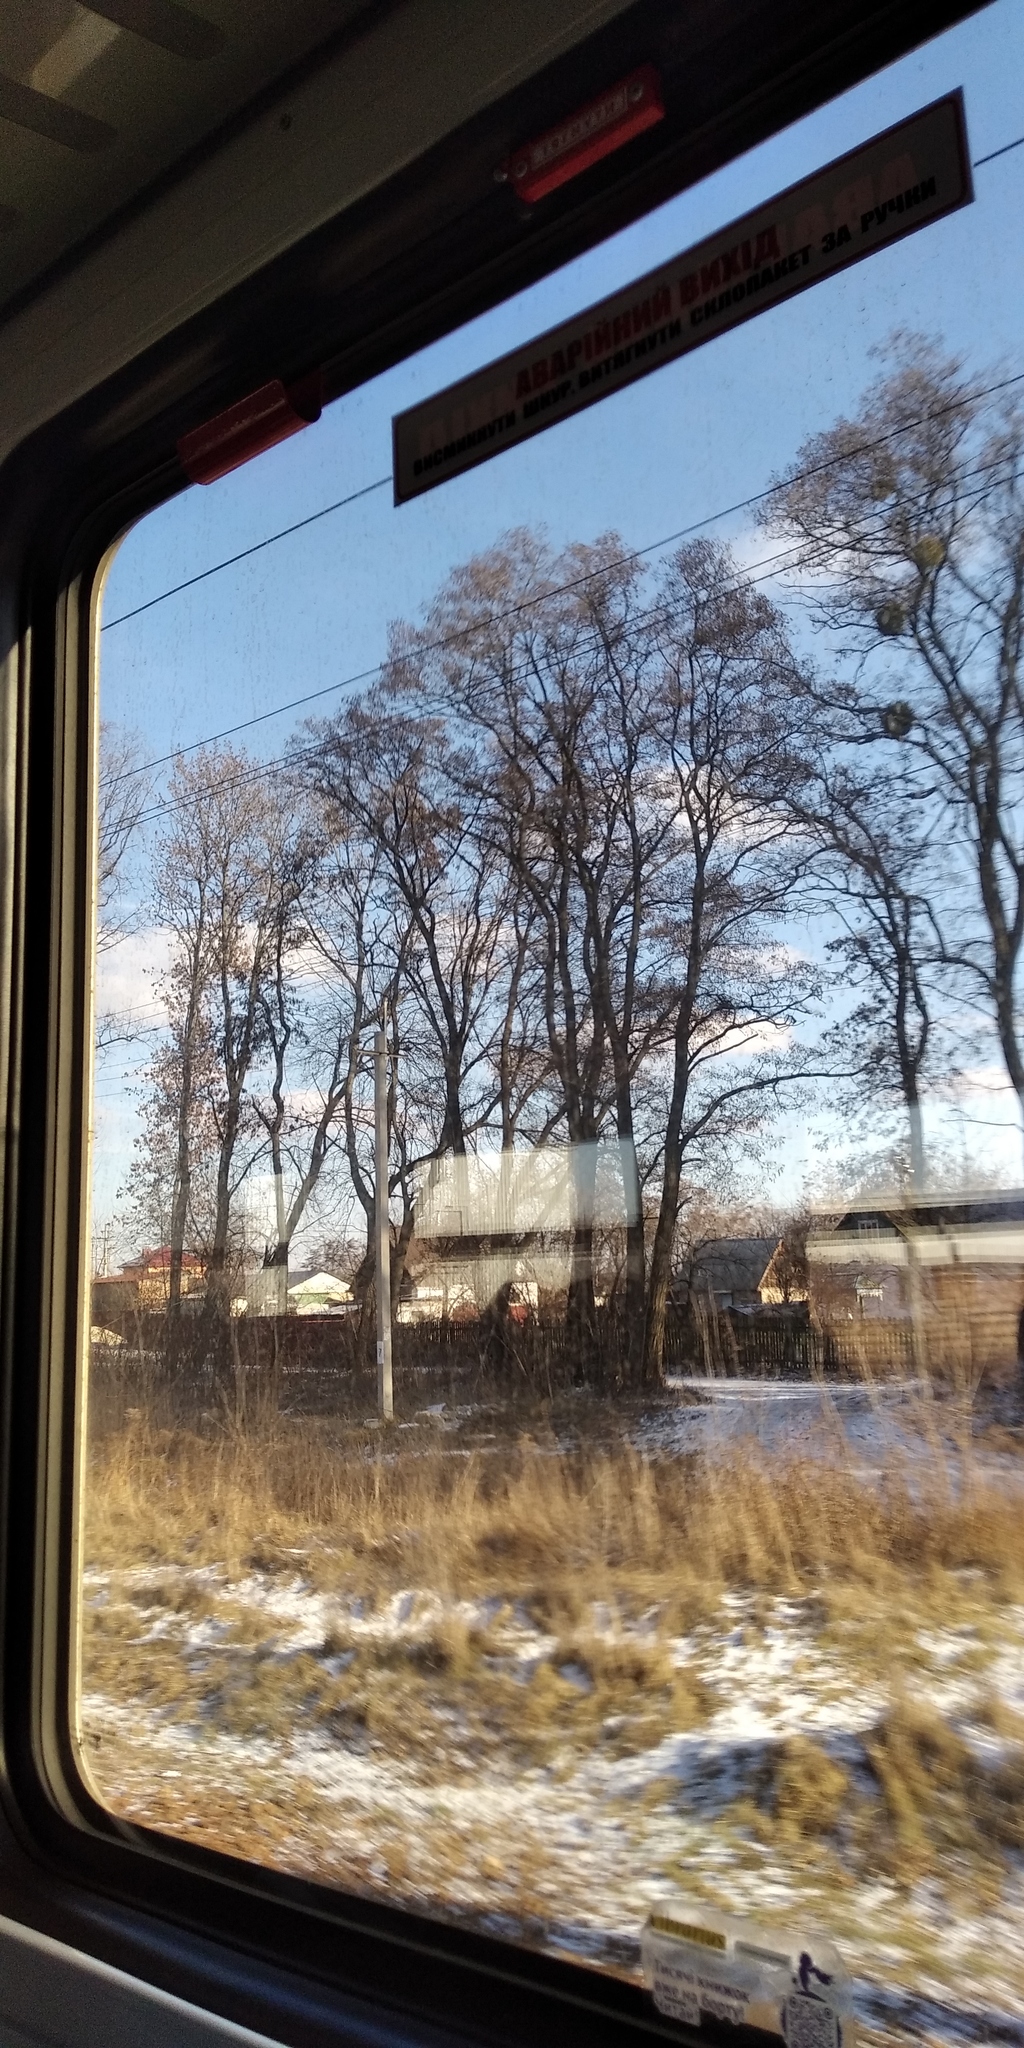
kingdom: Plantae
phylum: Tracheophyta
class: Magnoliopsida
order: Santalales
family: Viscaceae
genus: Viscum
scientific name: Viscum album
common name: Mistletoe
